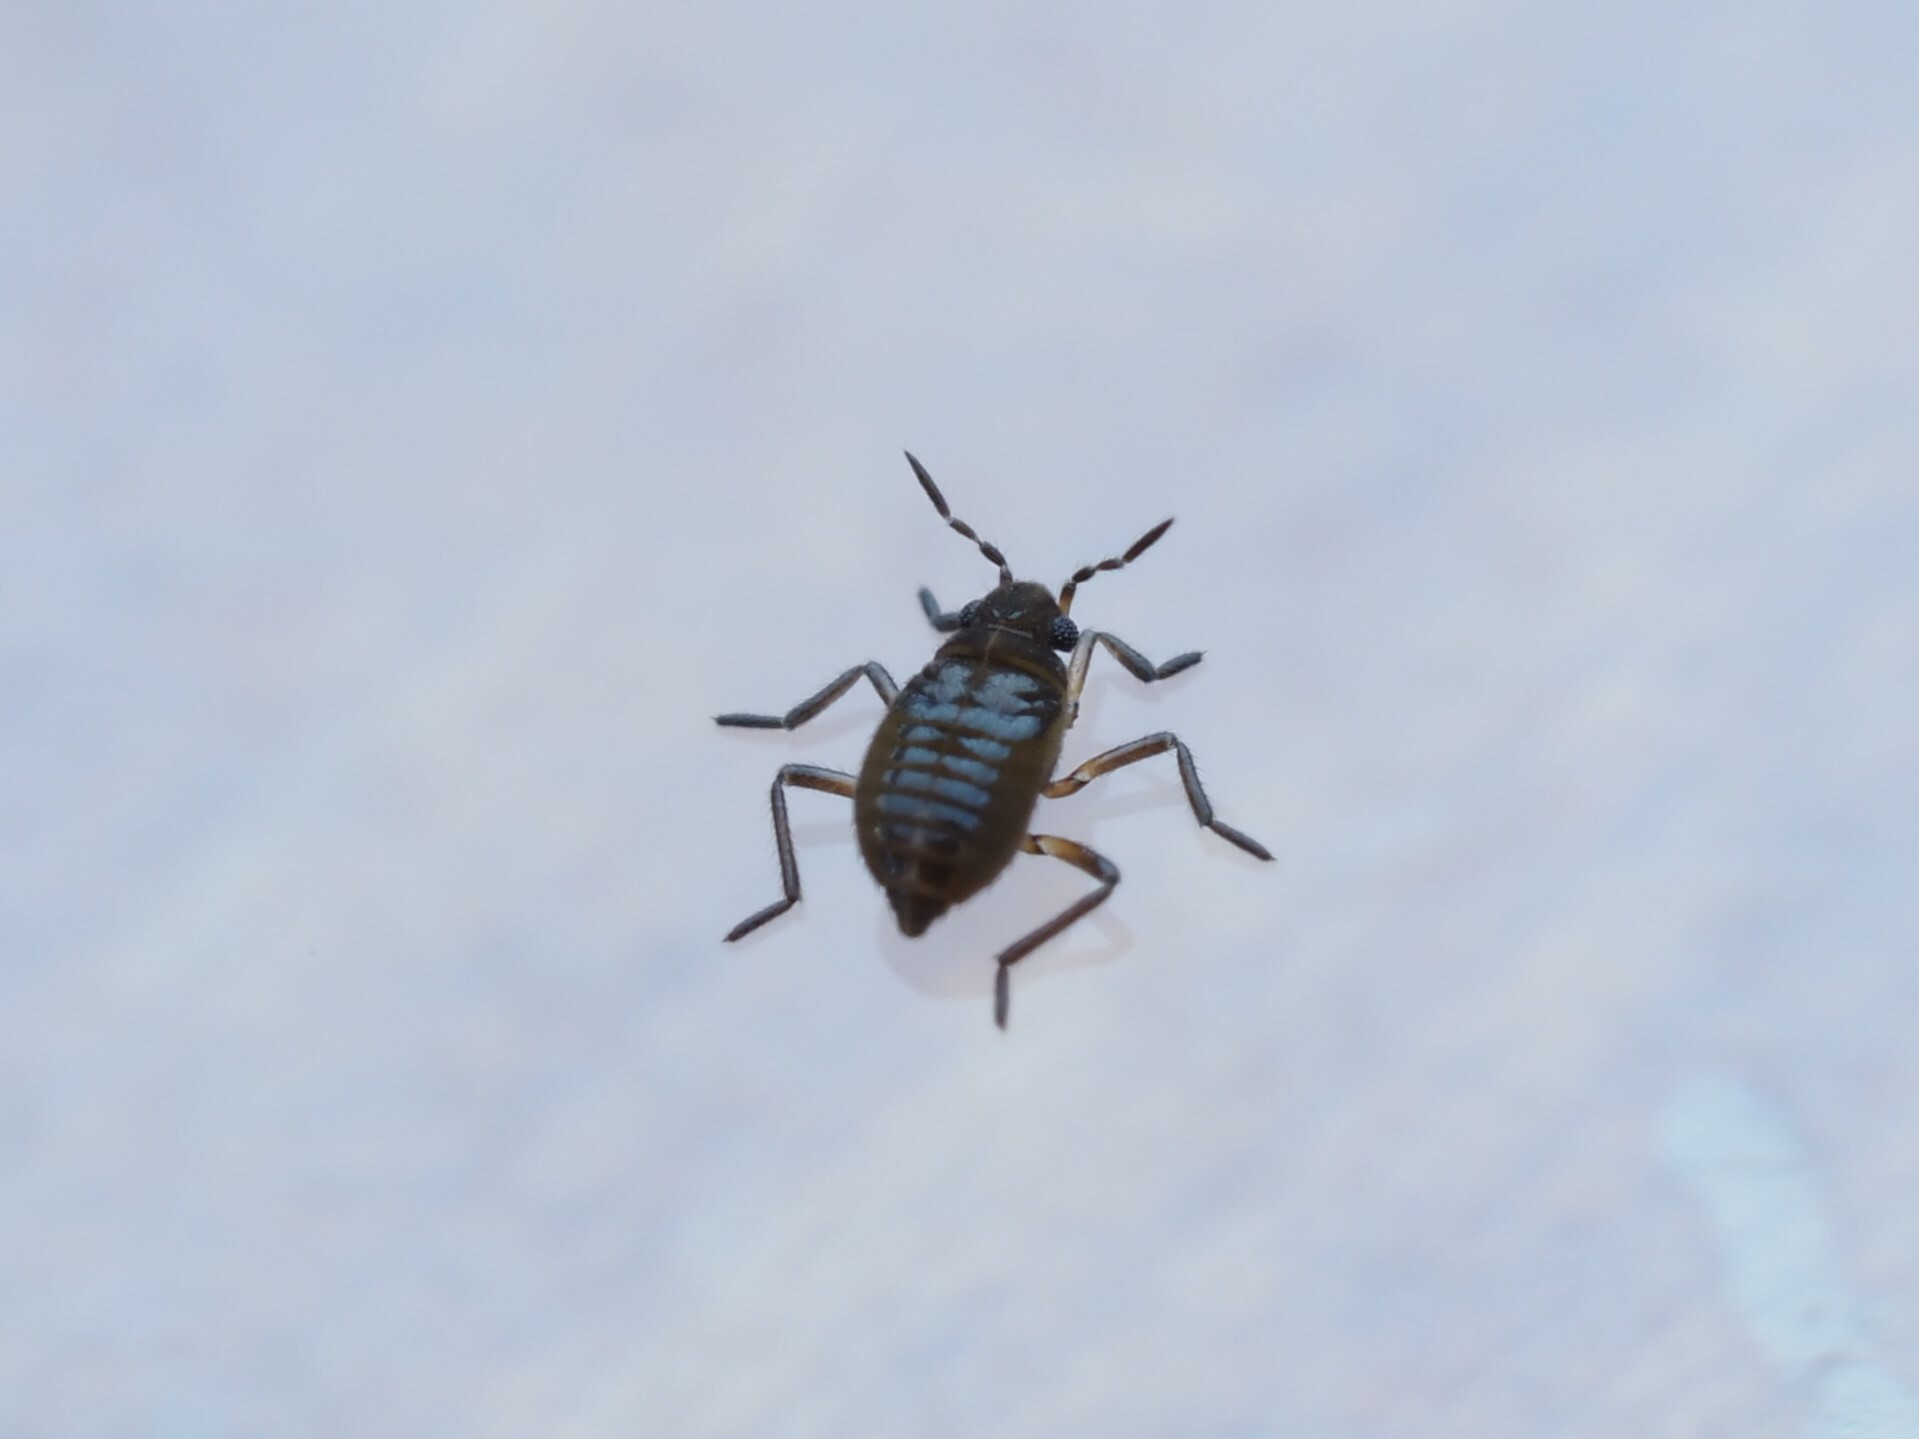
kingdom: Animalia
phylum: Arthropoda
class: Insecta
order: Hemiptera
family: Veliidae
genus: Microvelia
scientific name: Microvelia macgregori
